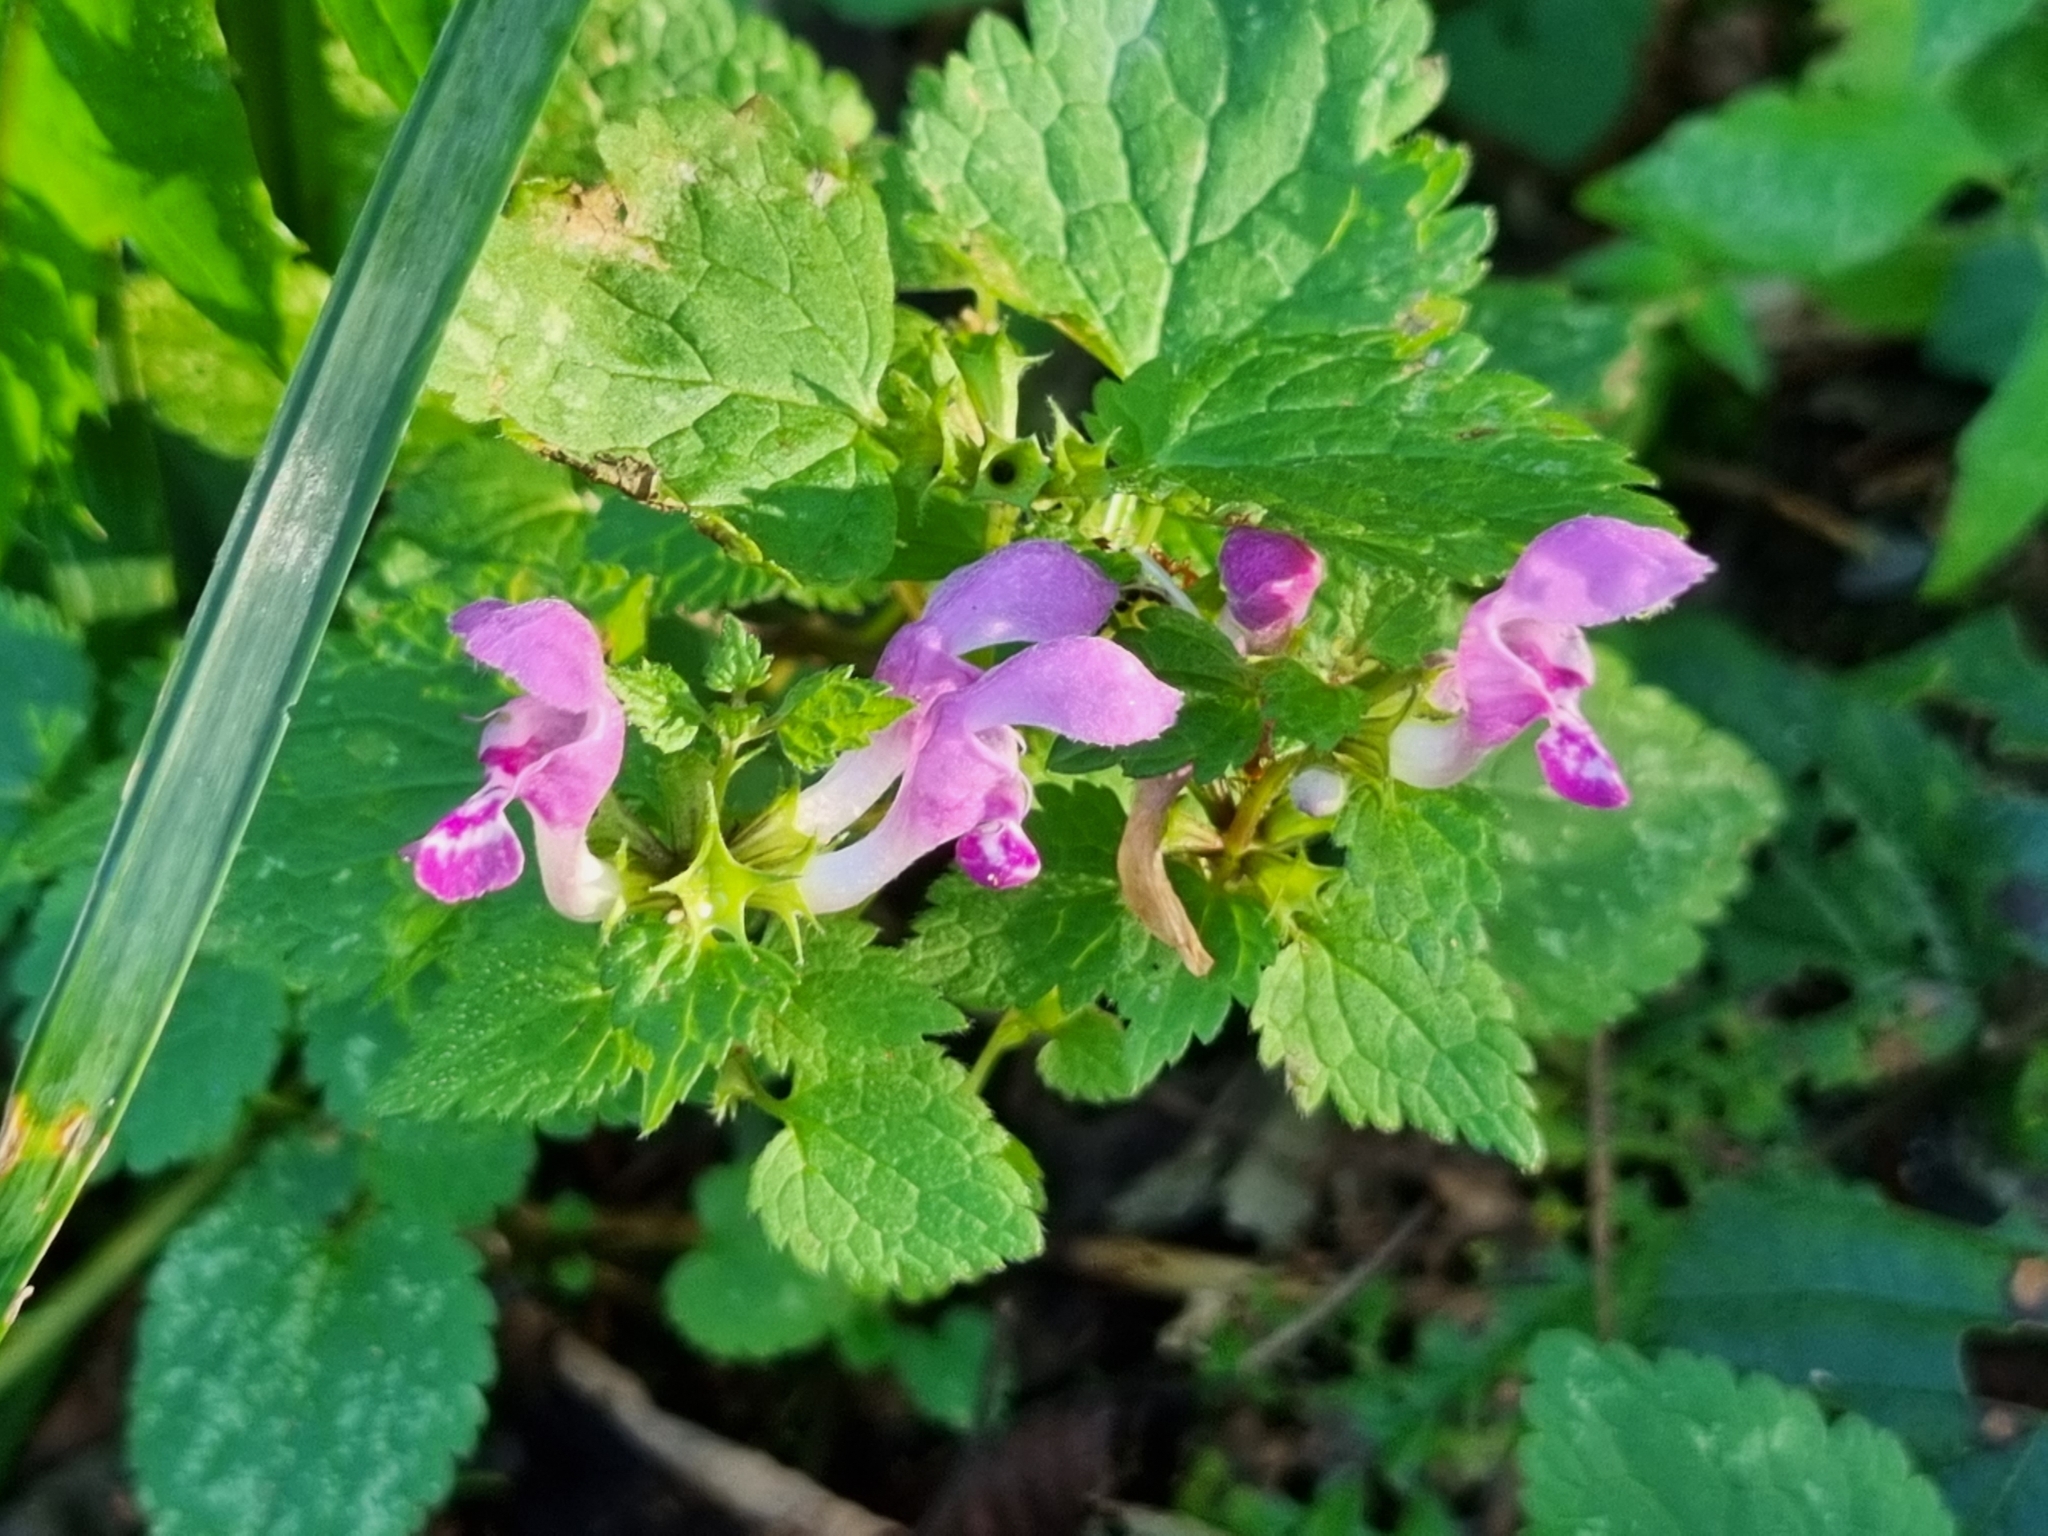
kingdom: Plantae
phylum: Tracheophyta
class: Magnoliopsida
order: Lamiales
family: Lamiaceae
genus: Lamium
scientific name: Lamium maculatum
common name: Spotted dead-nettle
